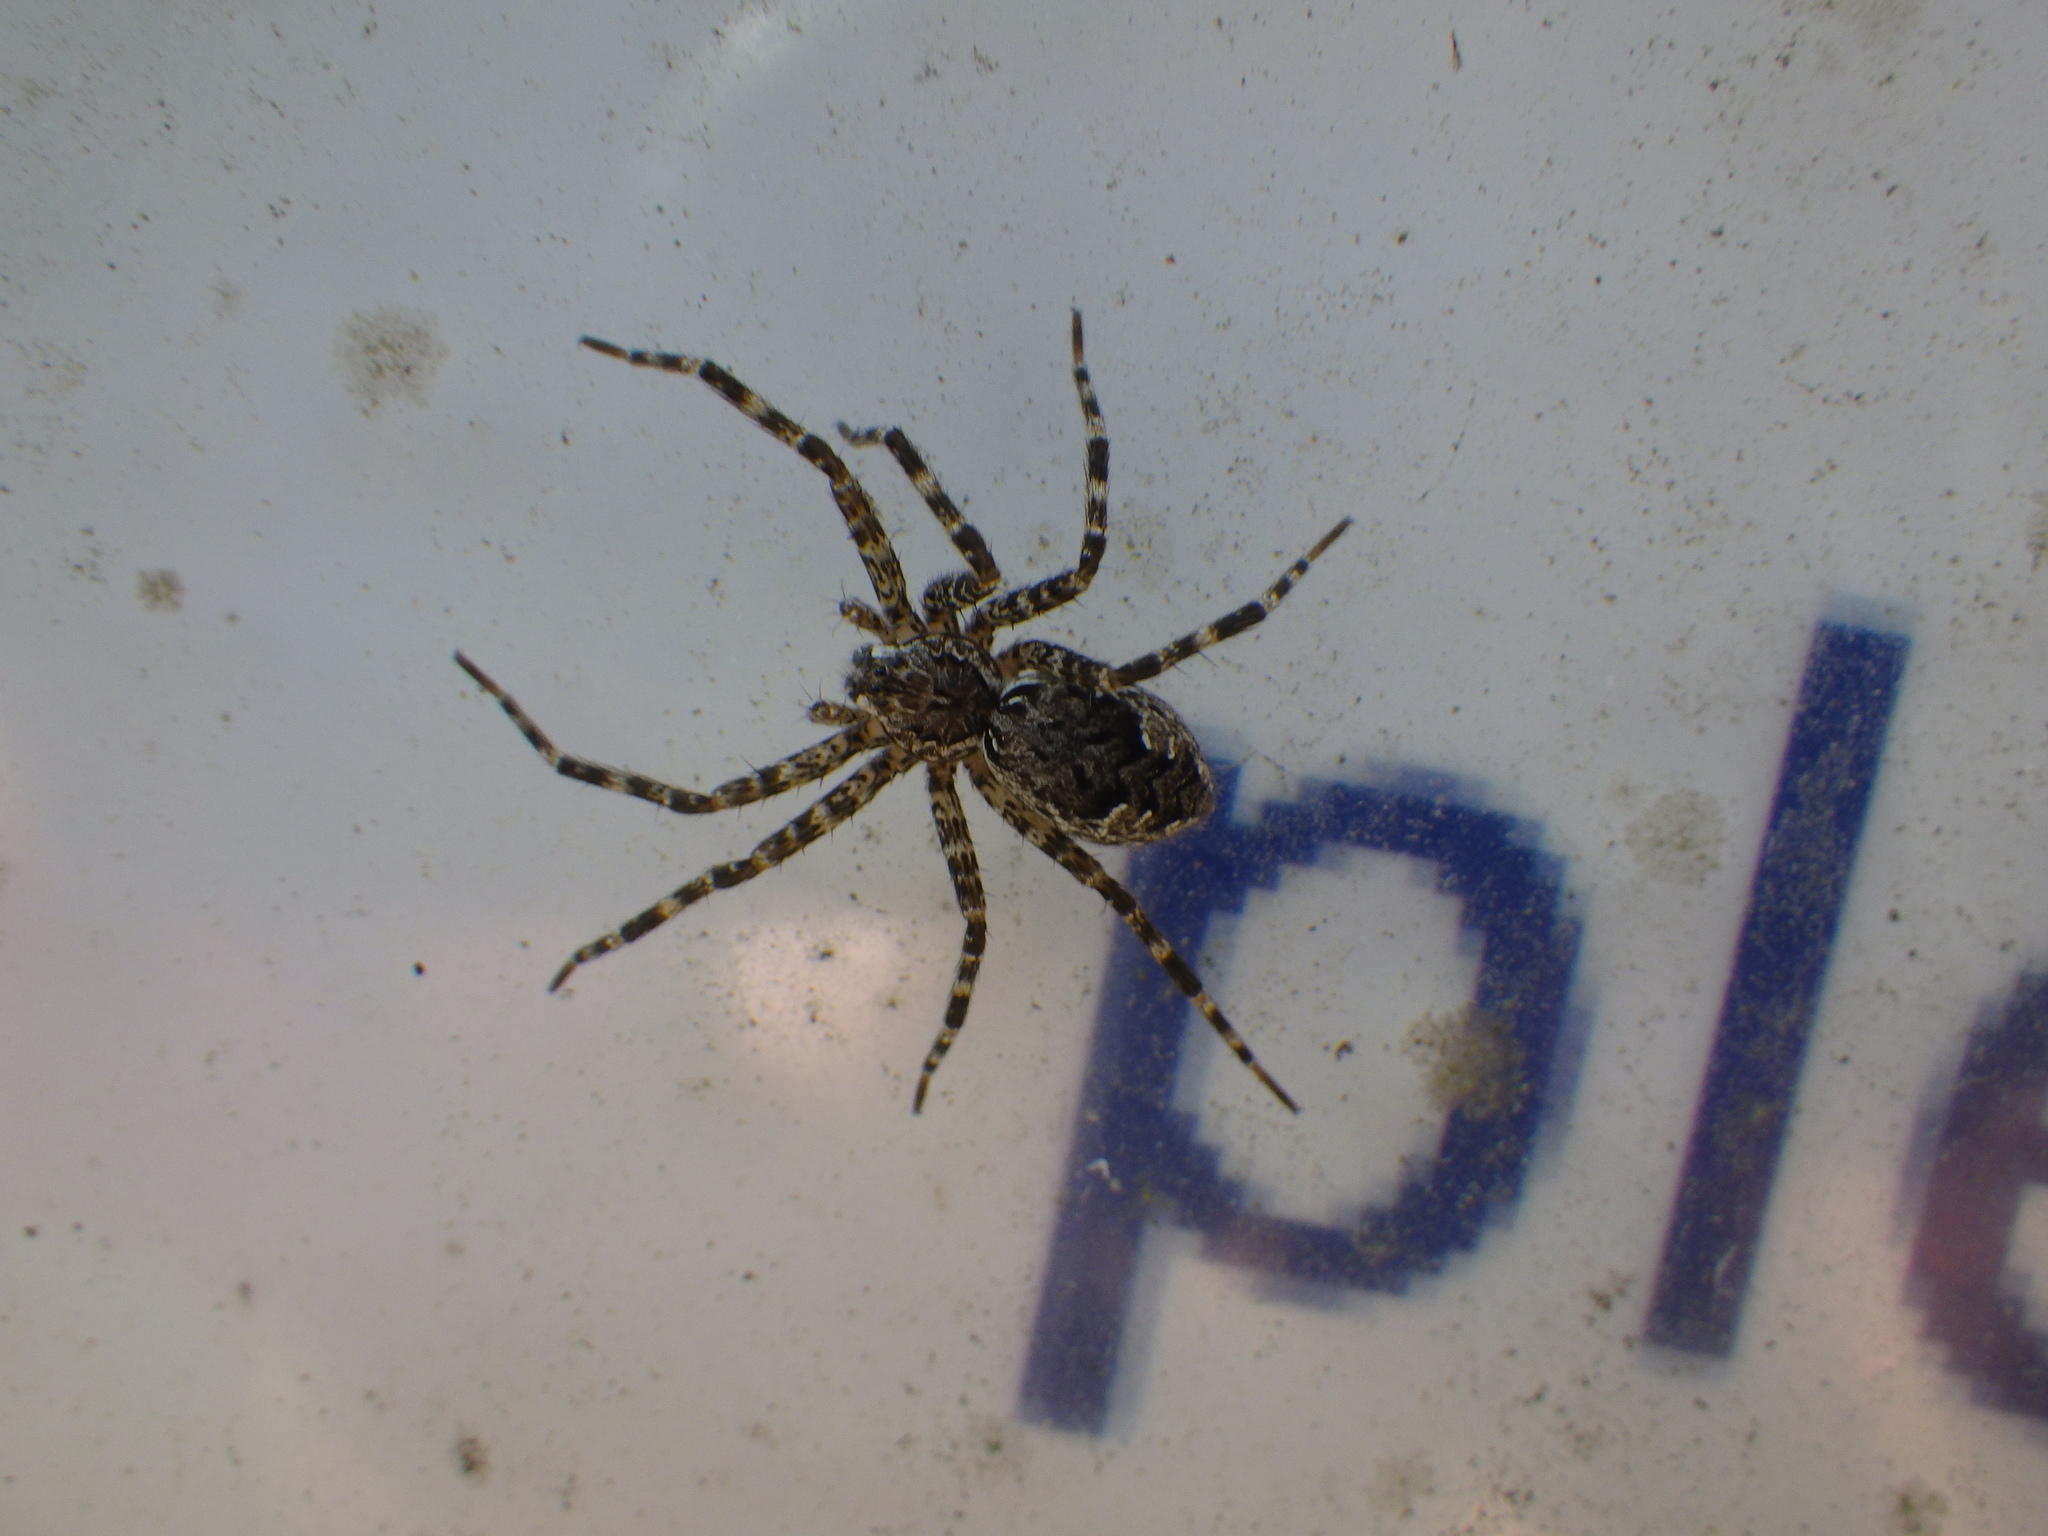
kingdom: Animalia
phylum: Arthropoda
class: Arachnida
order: Araneae
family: Pisauridae
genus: Dolomedes
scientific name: Dolomedes tenebrosus
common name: Dark fishing spider
